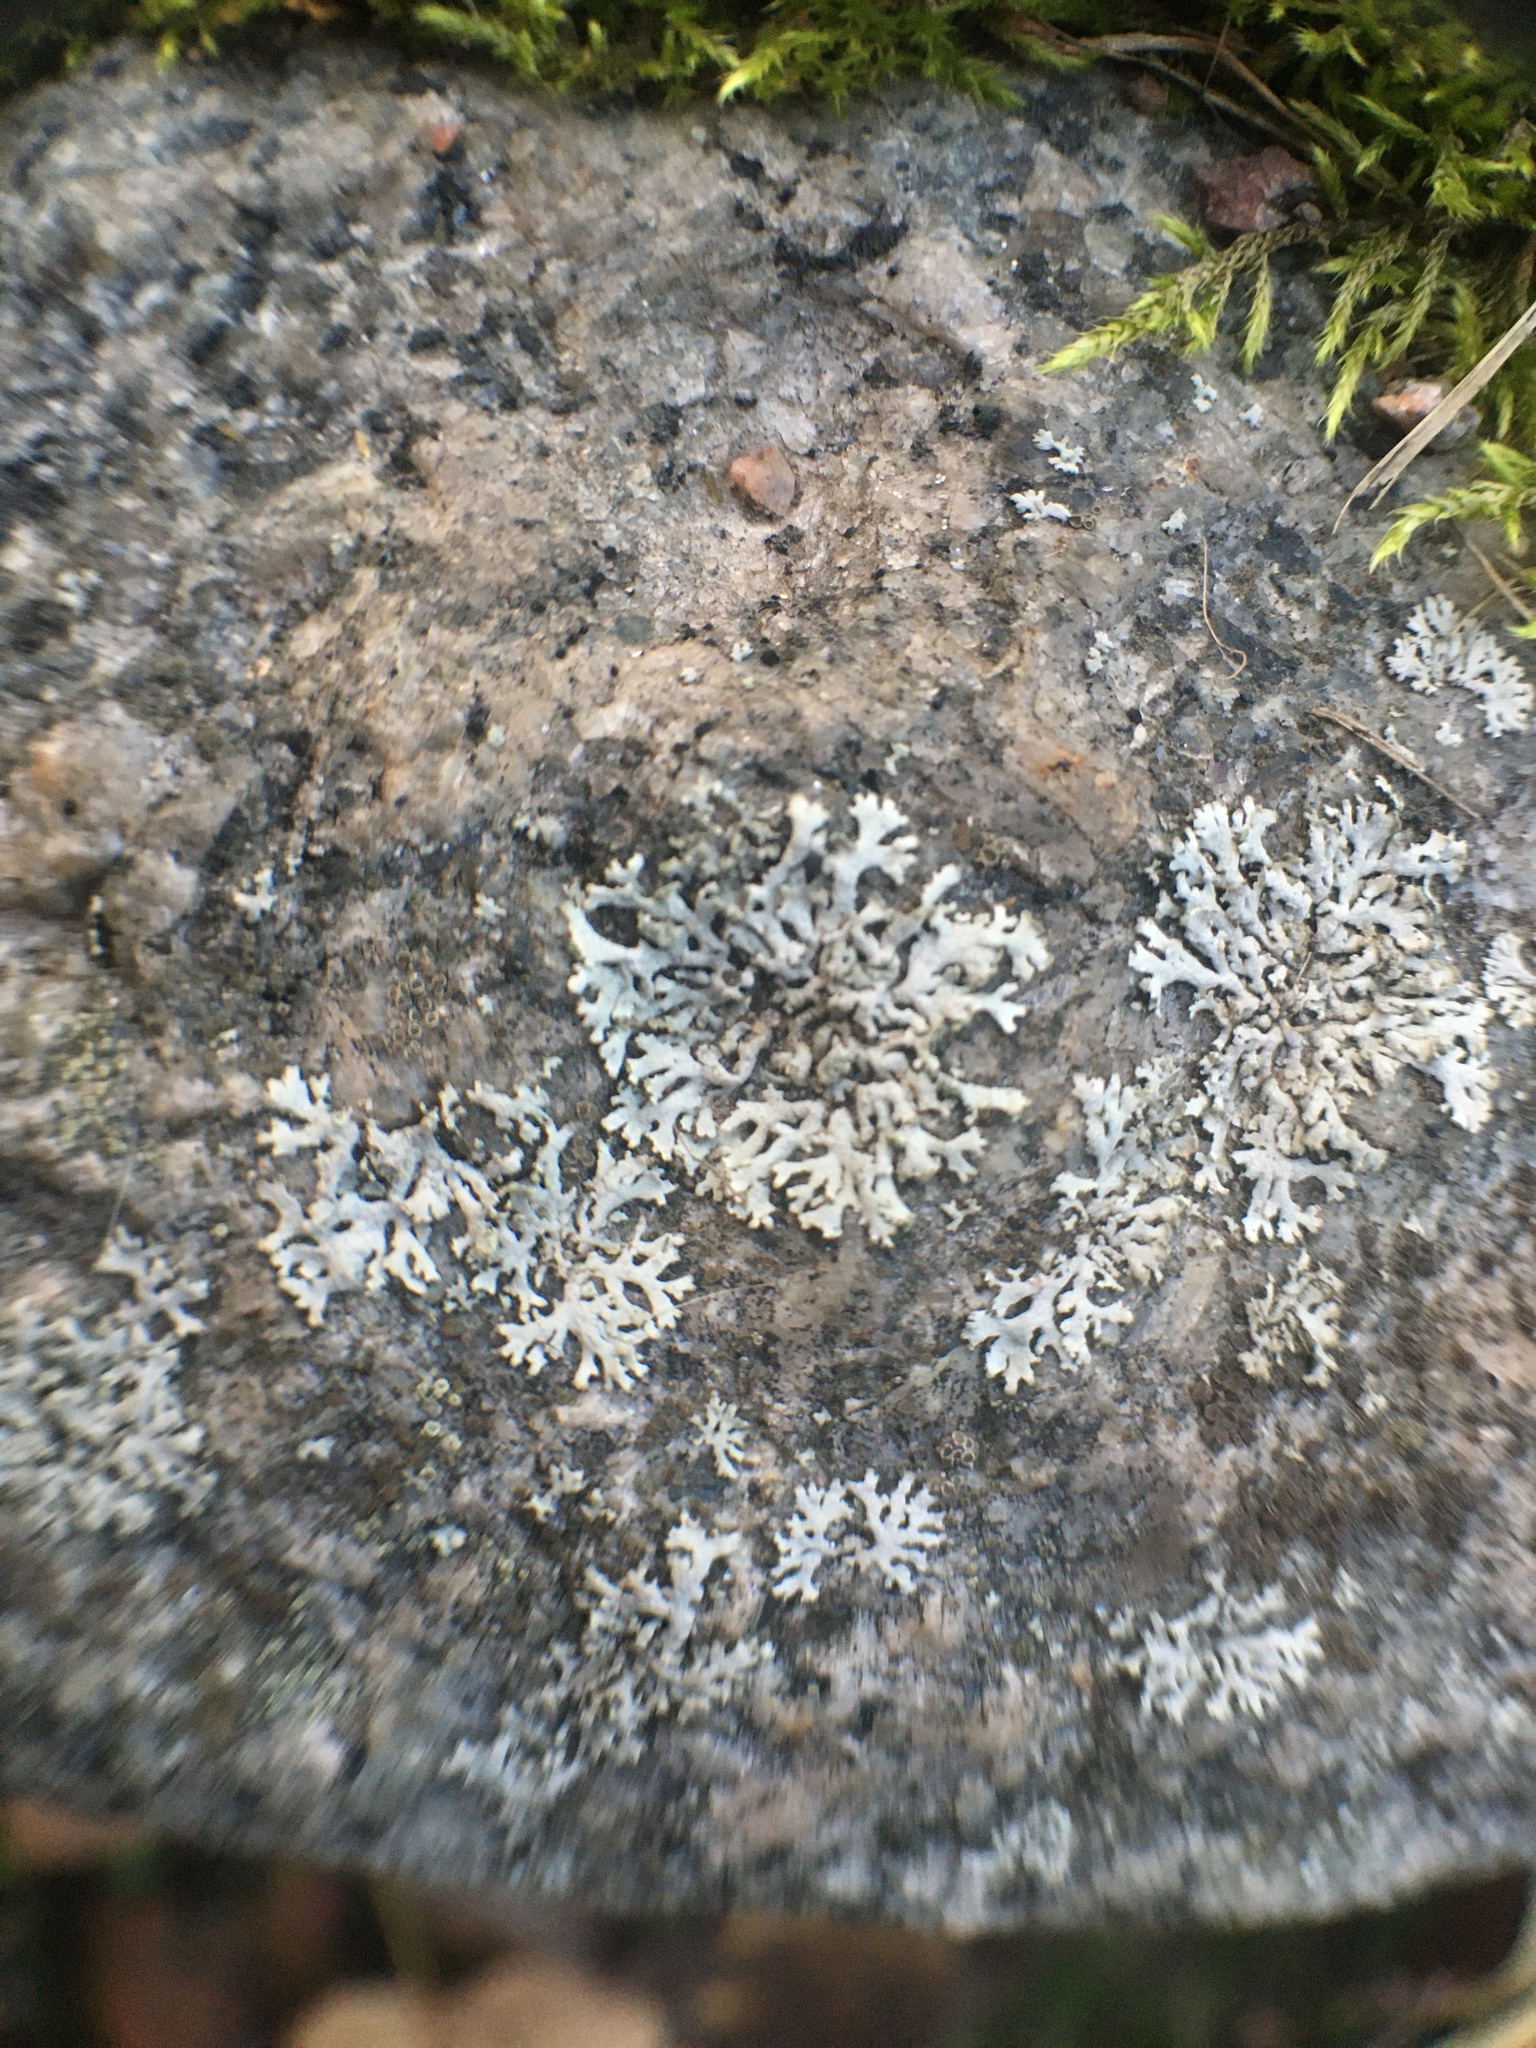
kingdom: Fungi
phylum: Ascomycota
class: Lecanoromycetes
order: Caliciales
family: Physciaceae
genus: Physcia
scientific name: Physcia caesia
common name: Blue-gray rosette lichen
